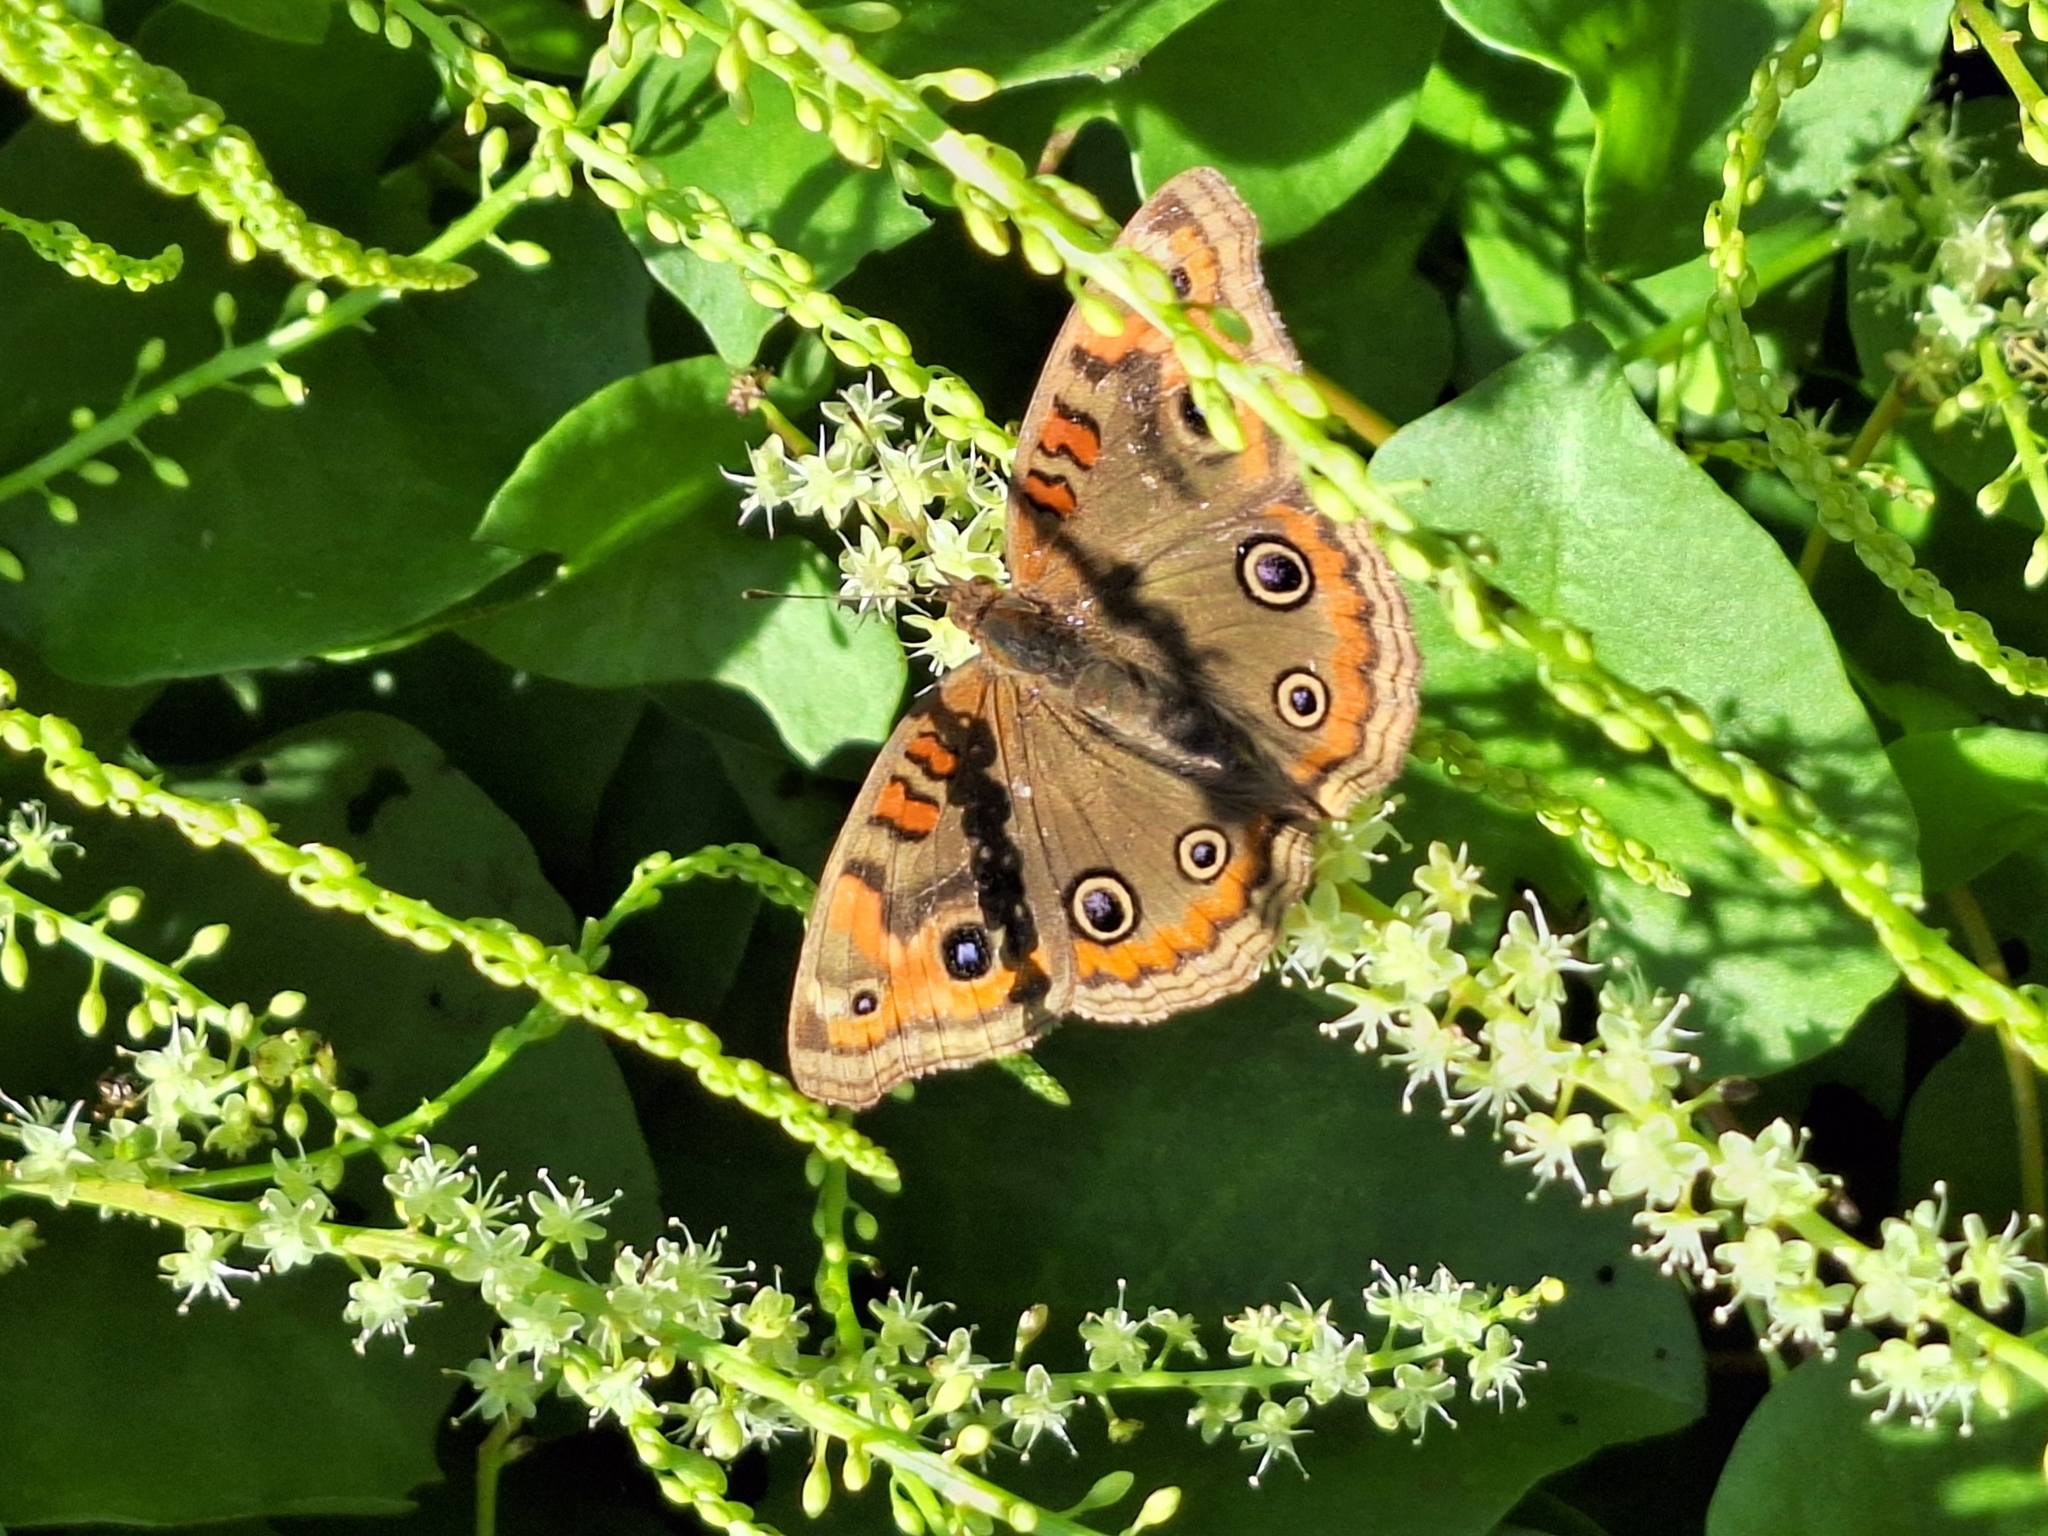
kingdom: Animalia
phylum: Arthropoda
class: Insecta
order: Lepidoptera
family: Nymphalidae
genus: Junonia
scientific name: Junonia lavinia
